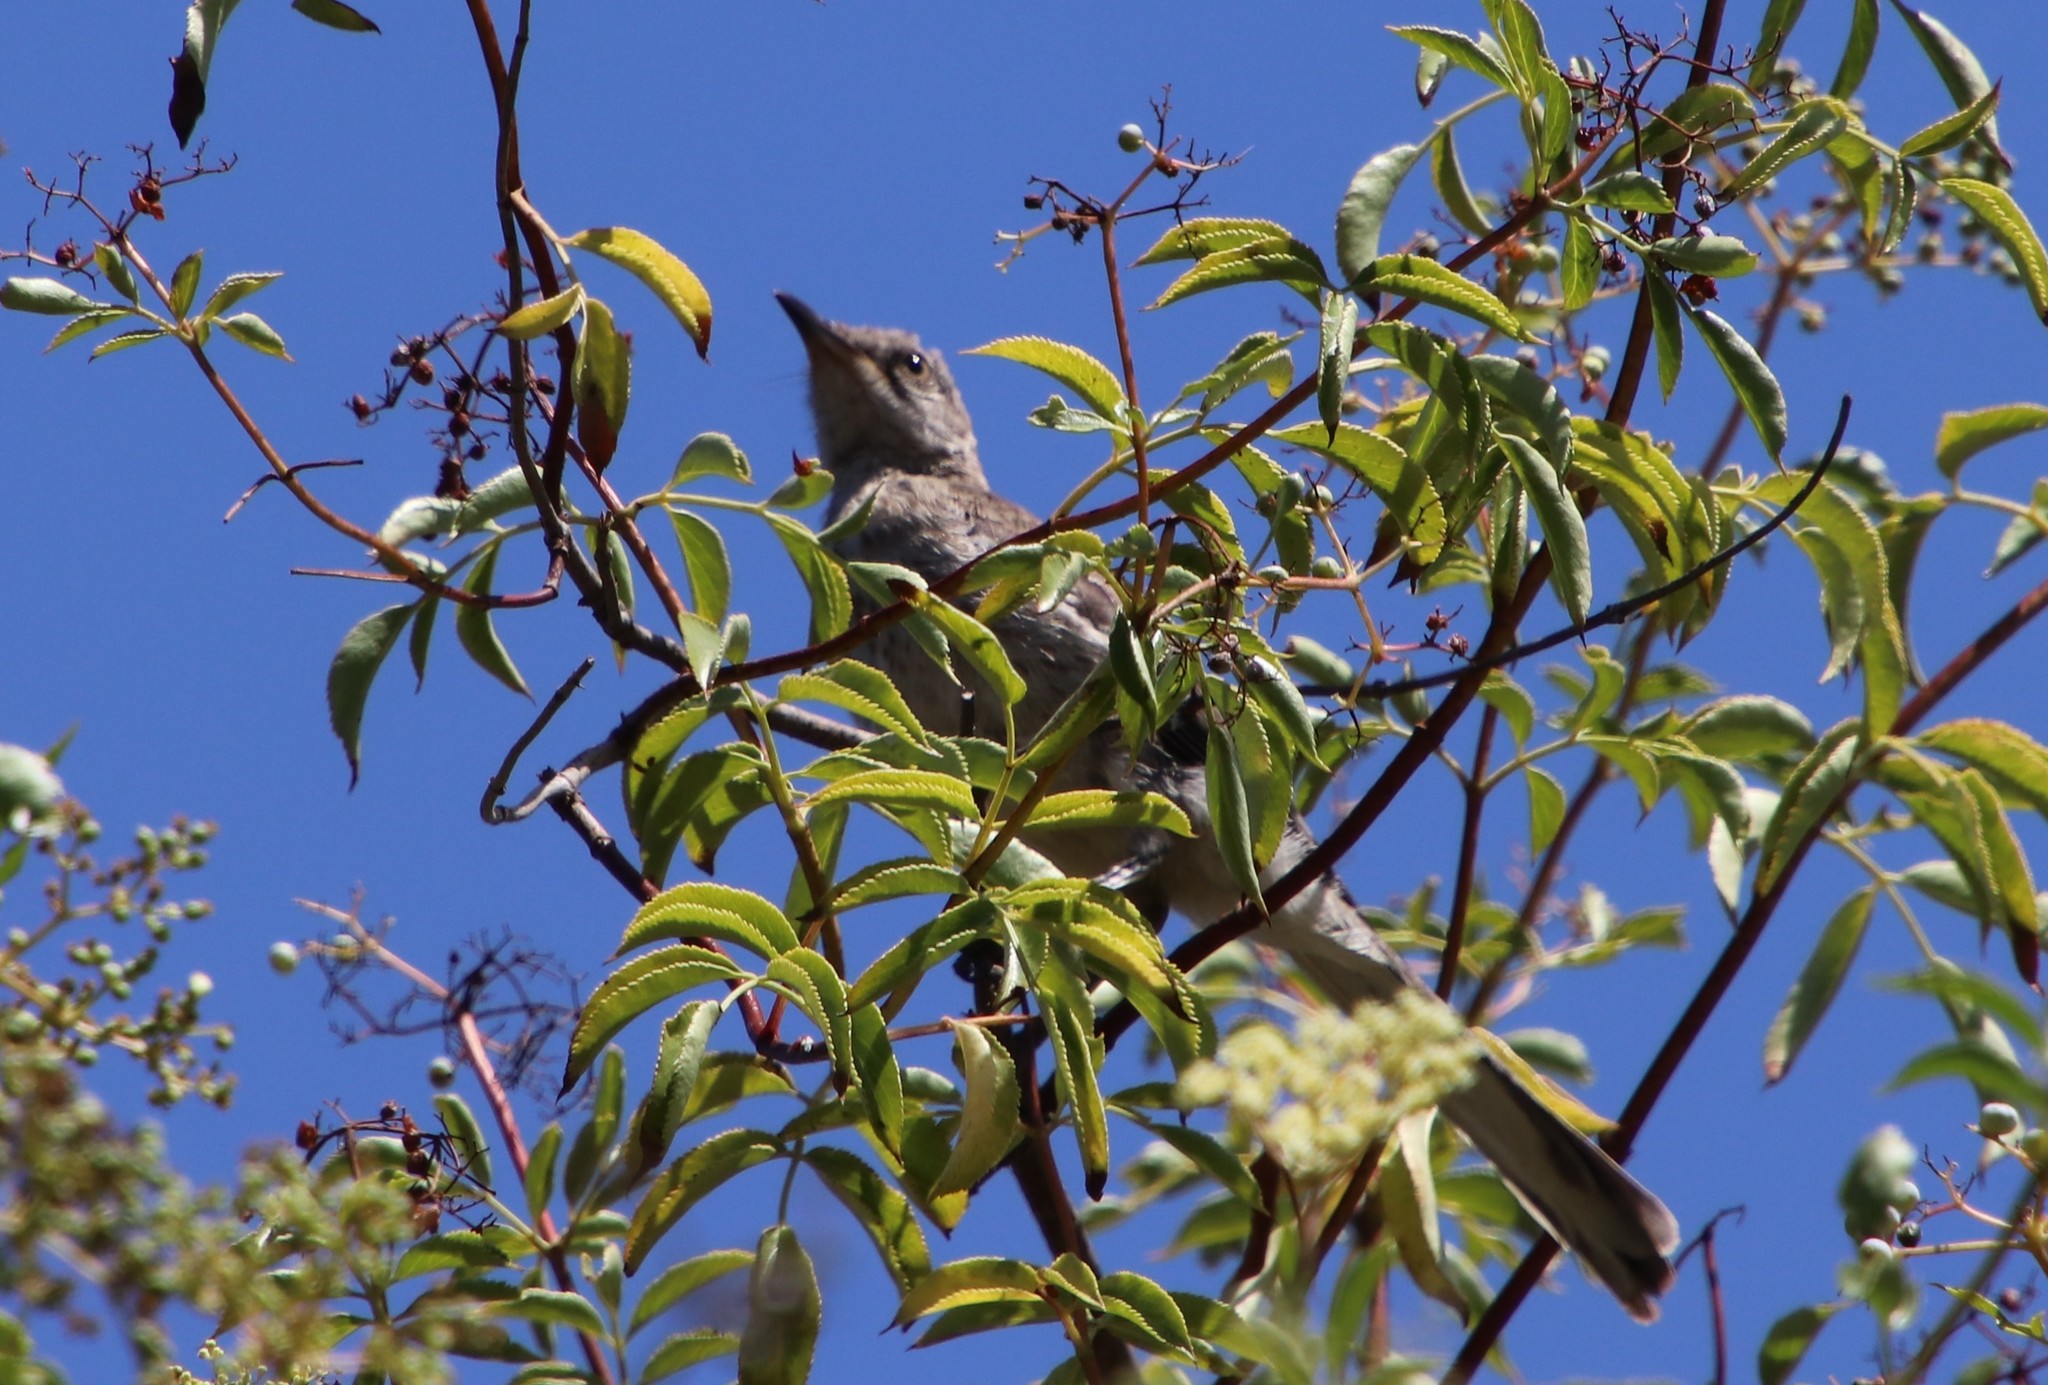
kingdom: Animalia
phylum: Chordata
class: Aves
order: Passeriformes
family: Mimidae
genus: Mimus
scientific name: Mimus polyglottos
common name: Northern mockingbird
